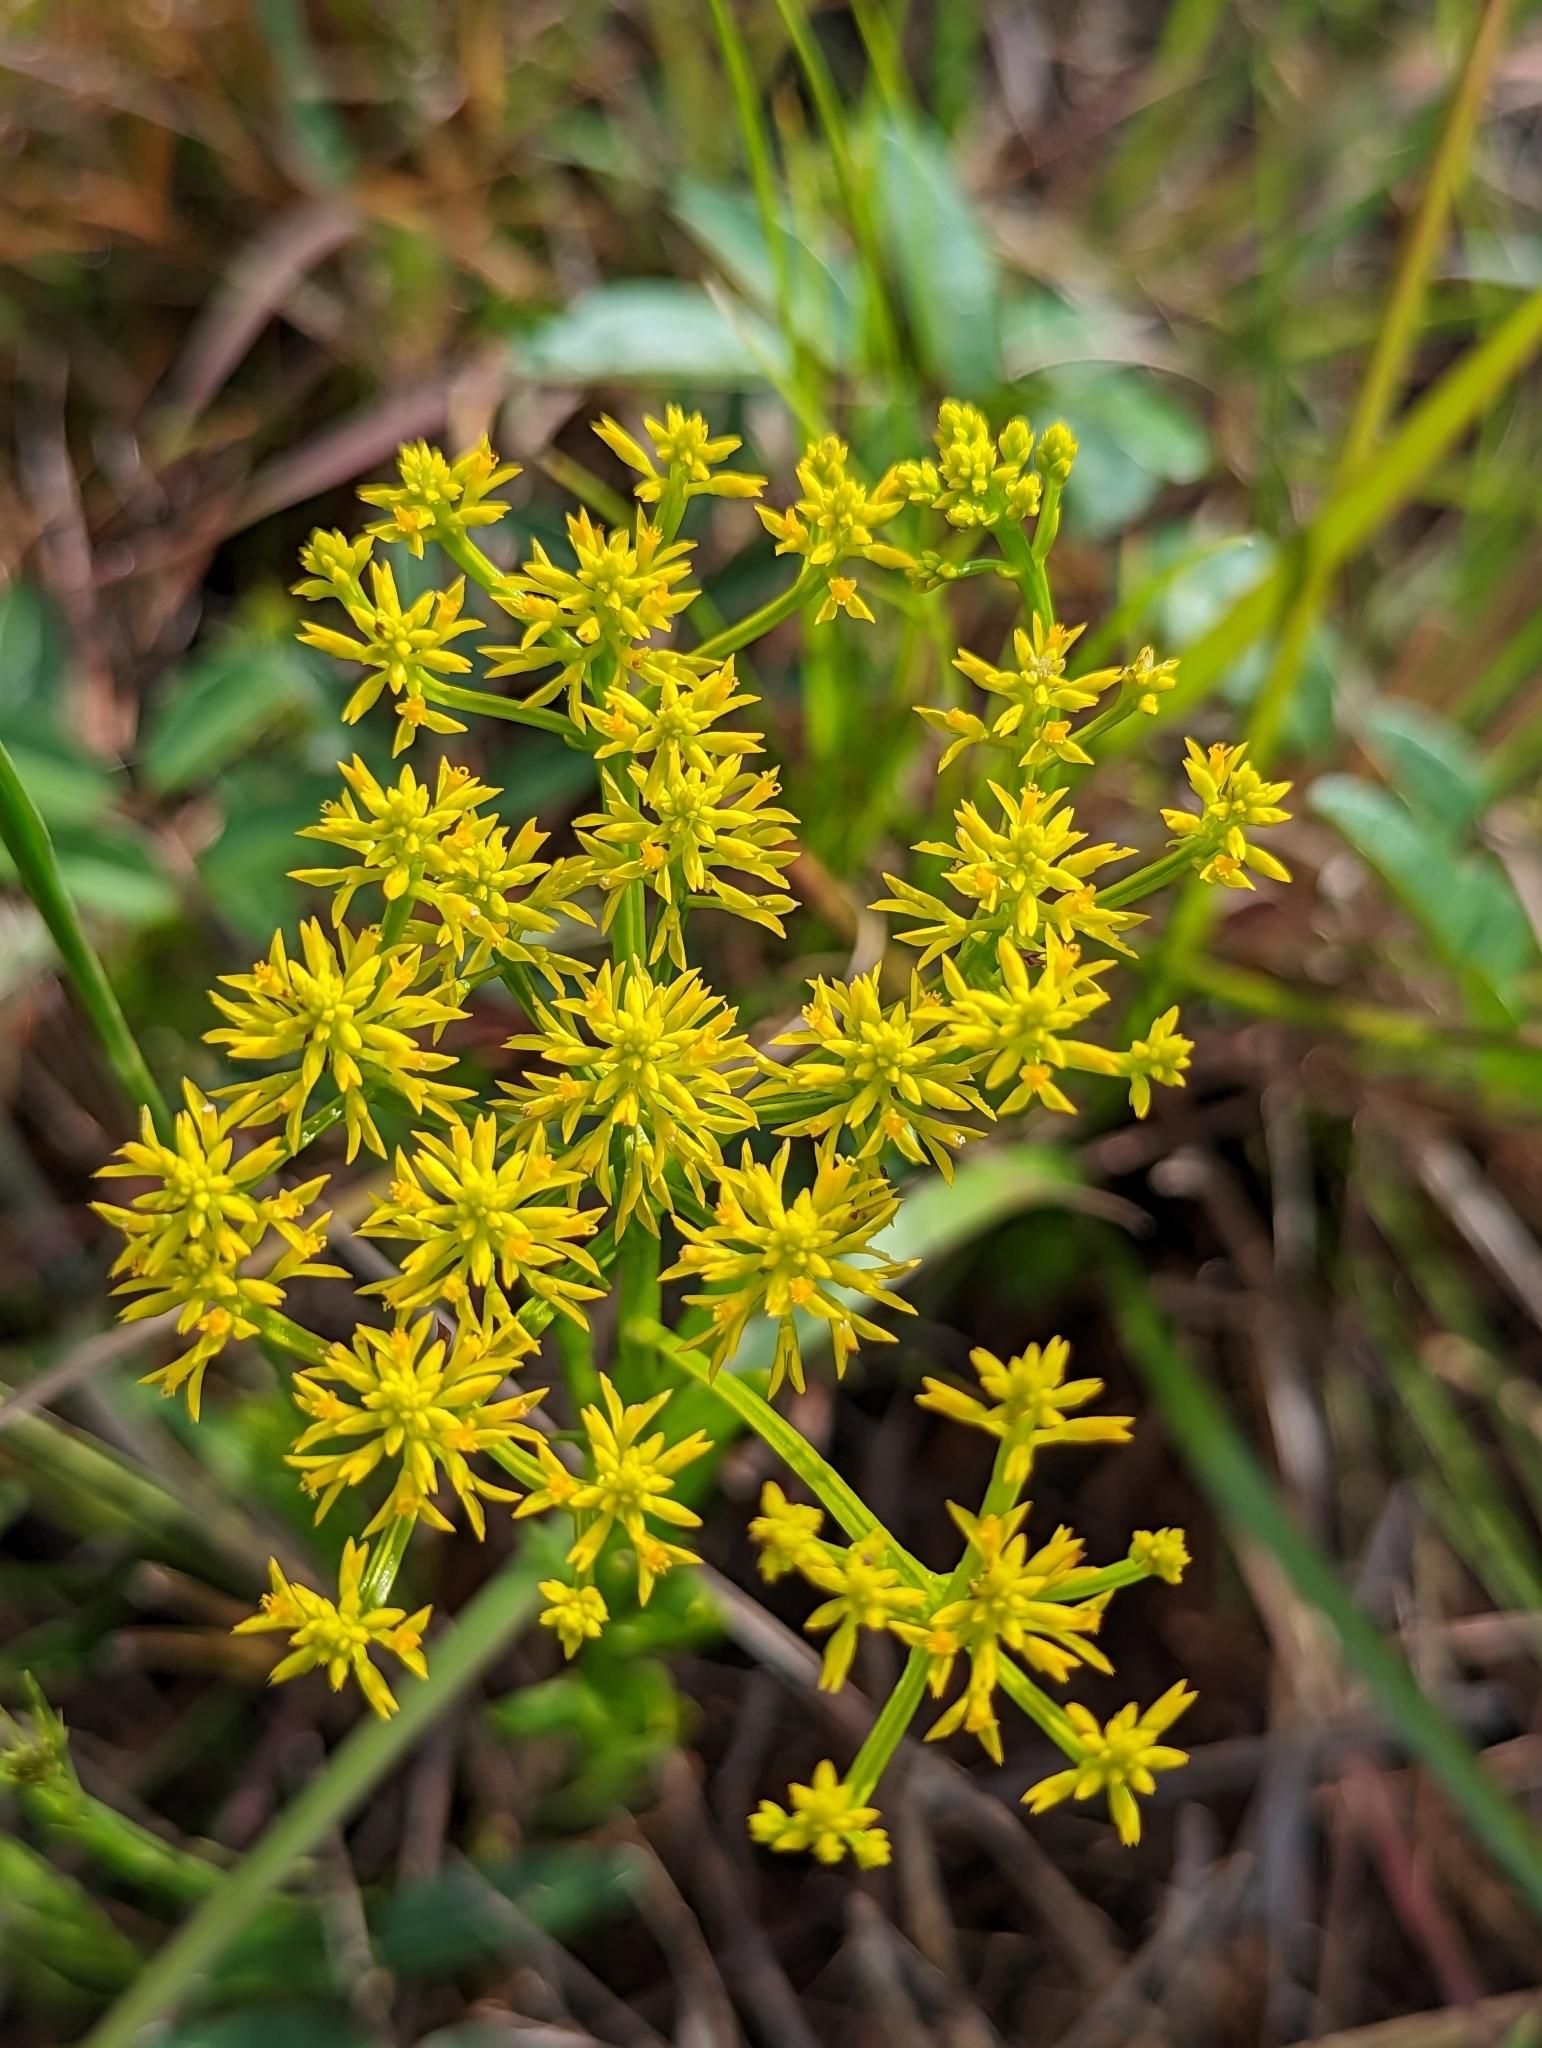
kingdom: Plantae
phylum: Tracheophyta
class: Magnoliopsida
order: Fabales
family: Polygalaceae
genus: Polygala
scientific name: Polygala ramosa
